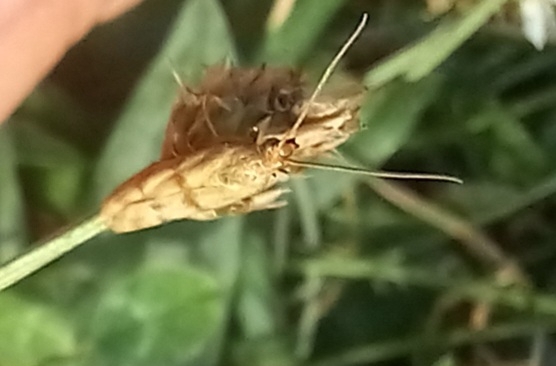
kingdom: Animalia
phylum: Arthropoda
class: Insecta
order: Lepidoptera
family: Pyralidae
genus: Homoeosoma
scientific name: Homoeosoma sinuella
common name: Twin-barred knot-horn
